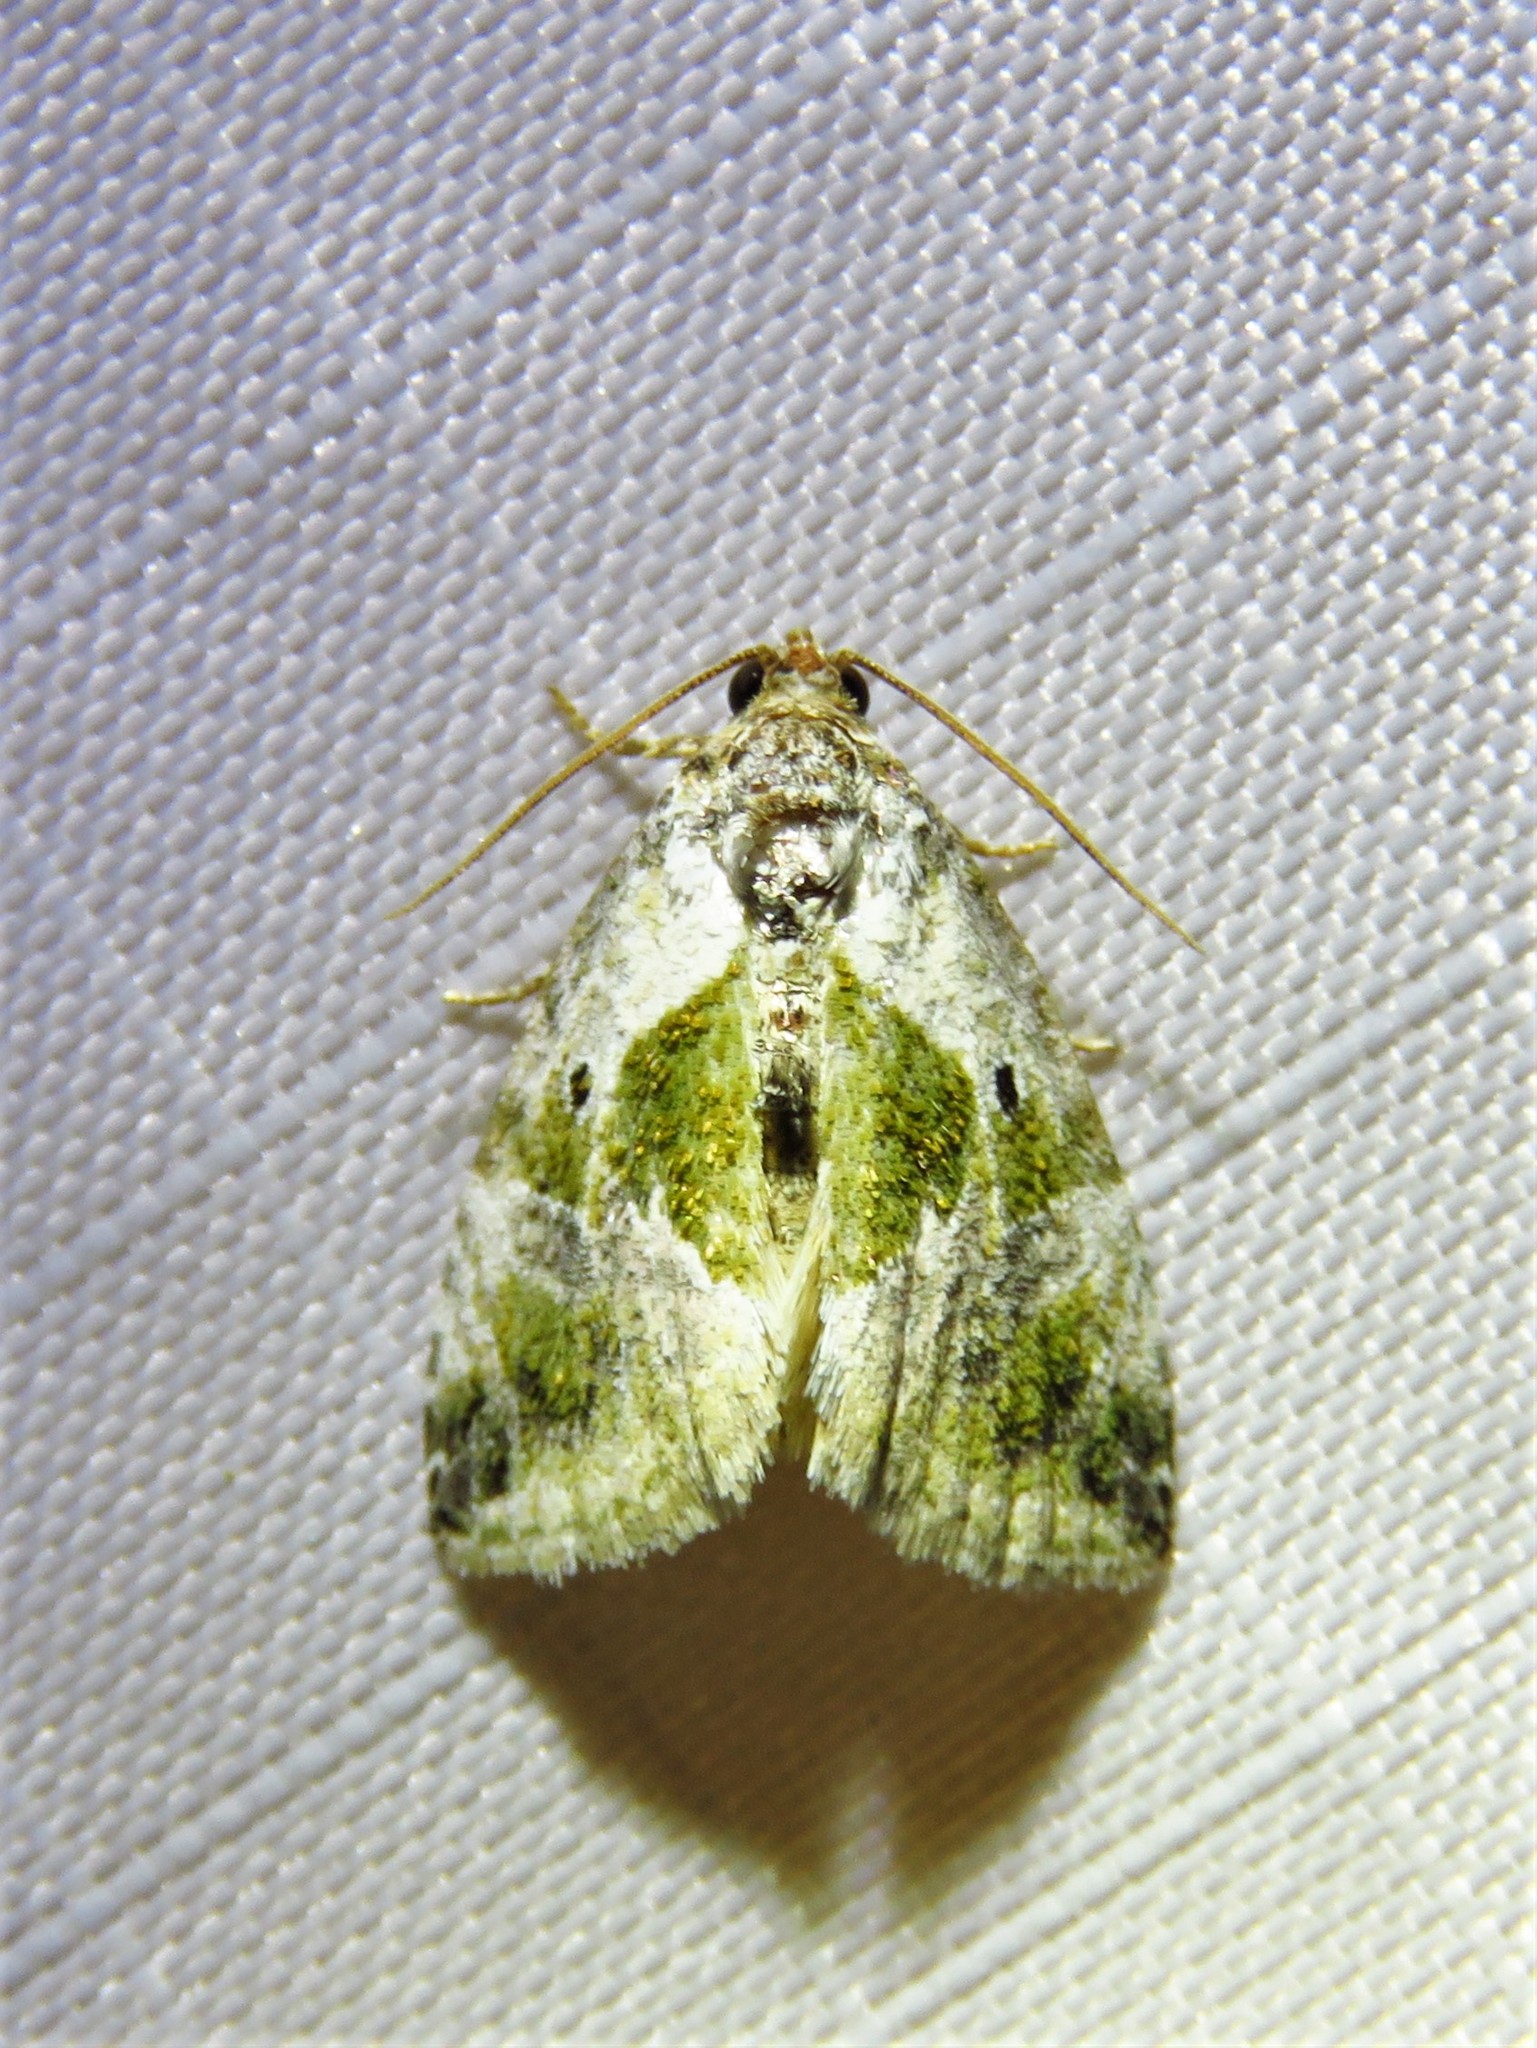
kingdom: Animalia
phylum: Arthropoda
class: Insecta
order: Lepidoptera
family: Noctuidae
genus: Maliattha
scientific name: Maliattha synochitis
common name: Black-dotted glyph
